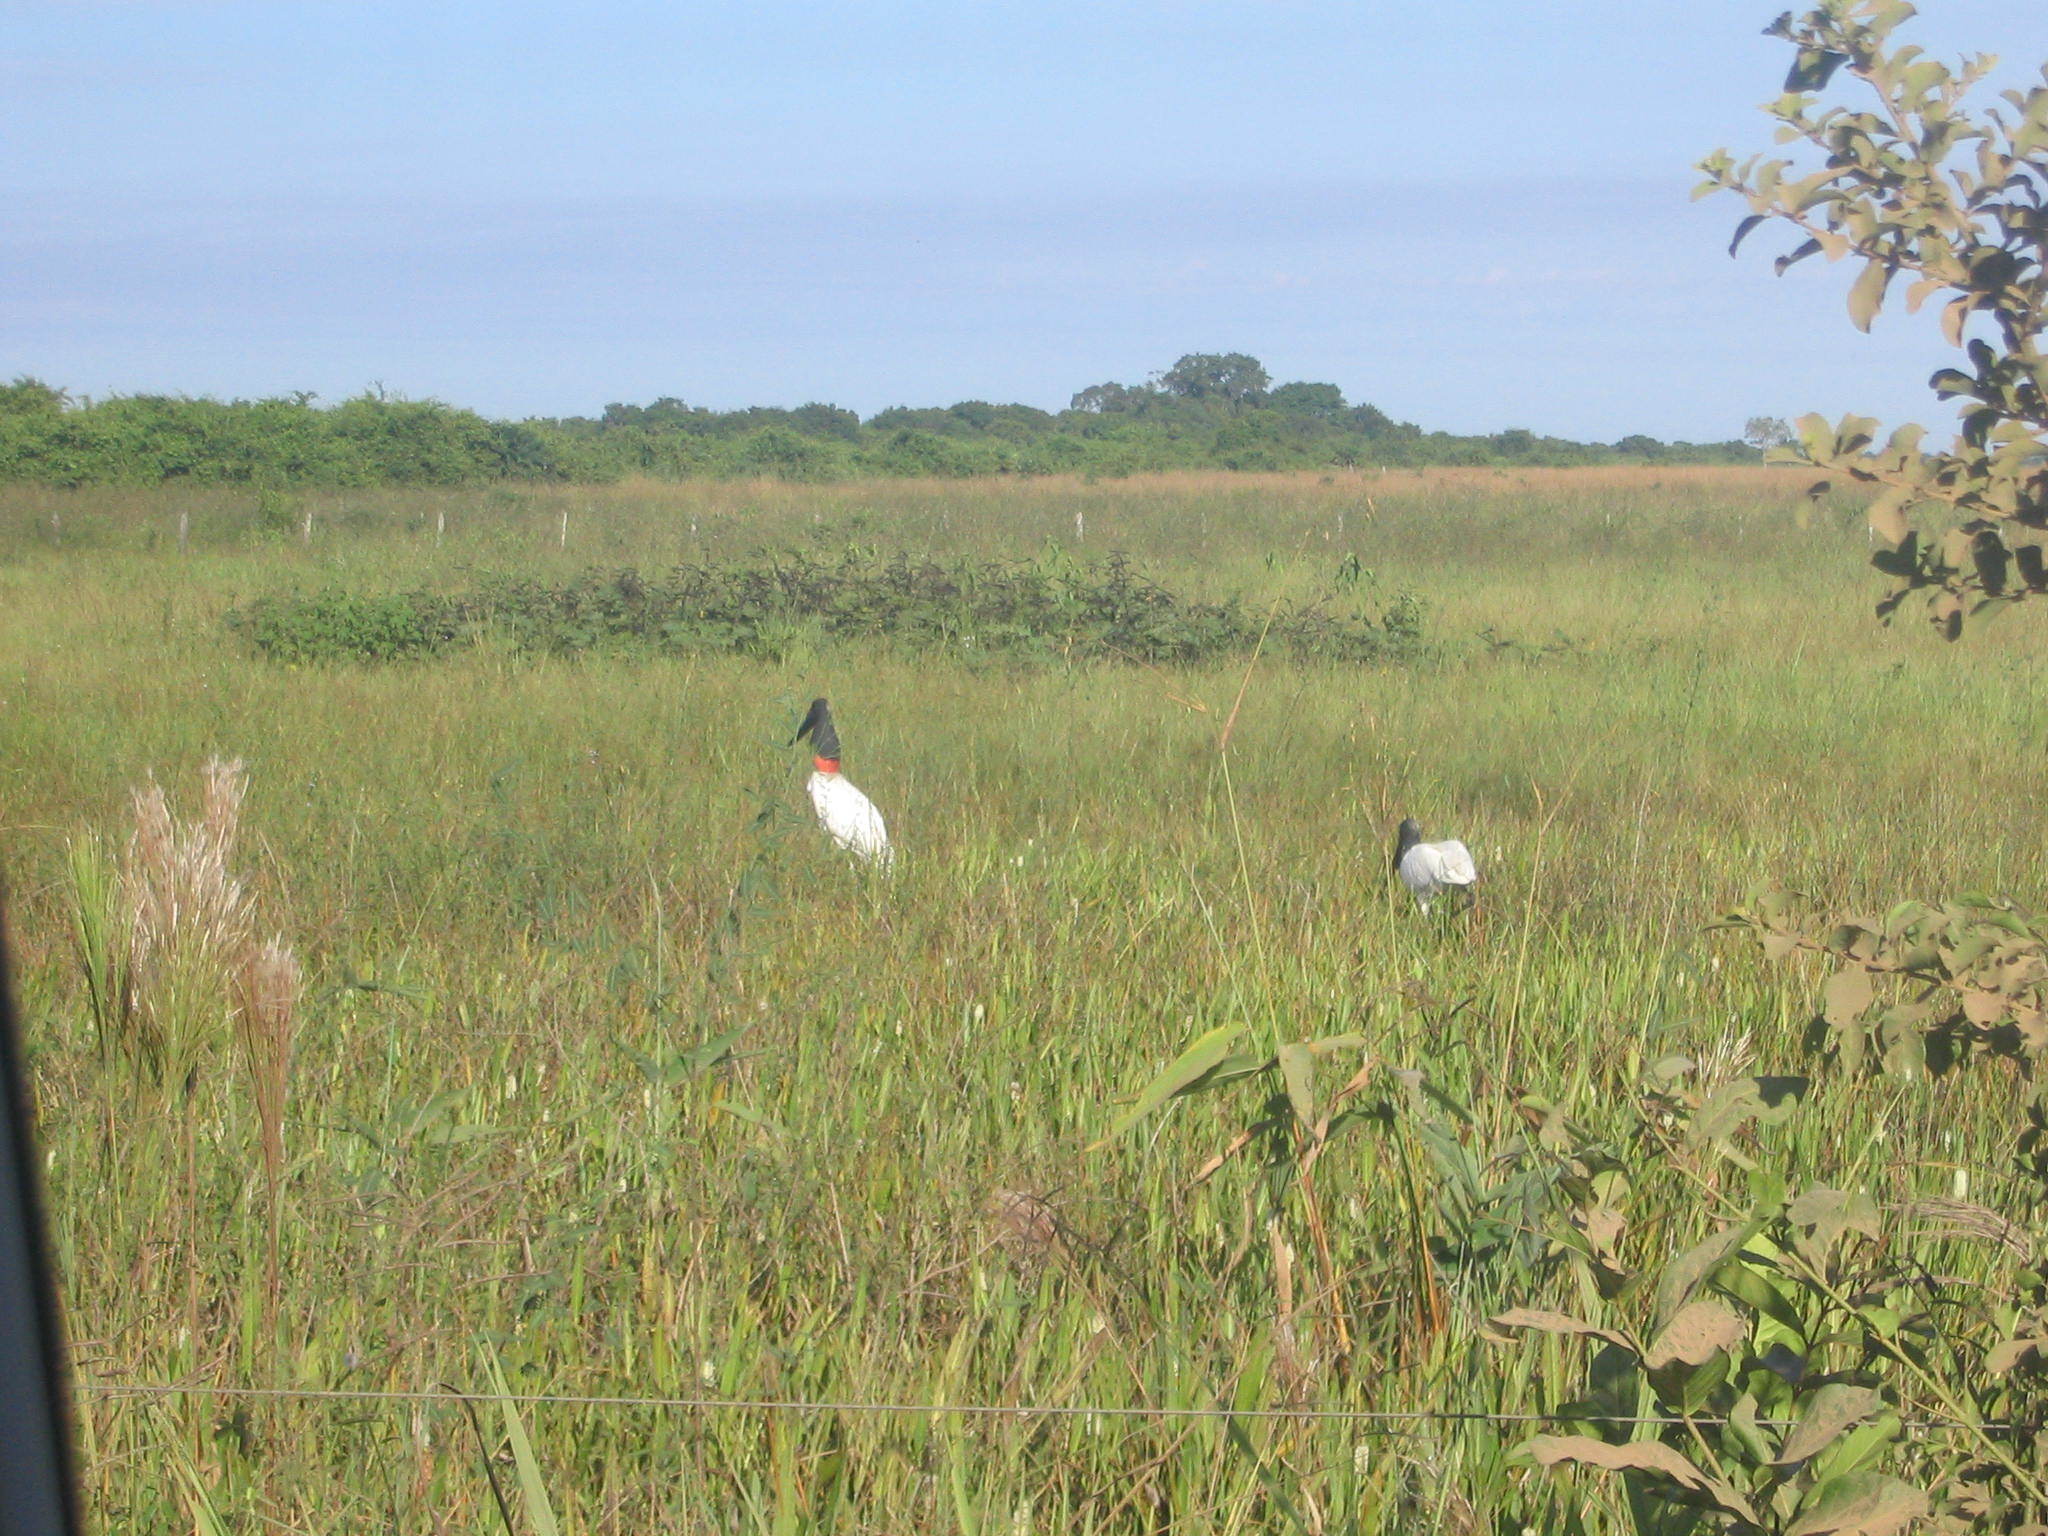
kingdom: Animalia
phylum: Chordata
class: Aves
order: Ciconiiformes
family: Ciconiidae
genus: Jabiru
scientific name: Jabiru mycteria
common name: Jabiru
